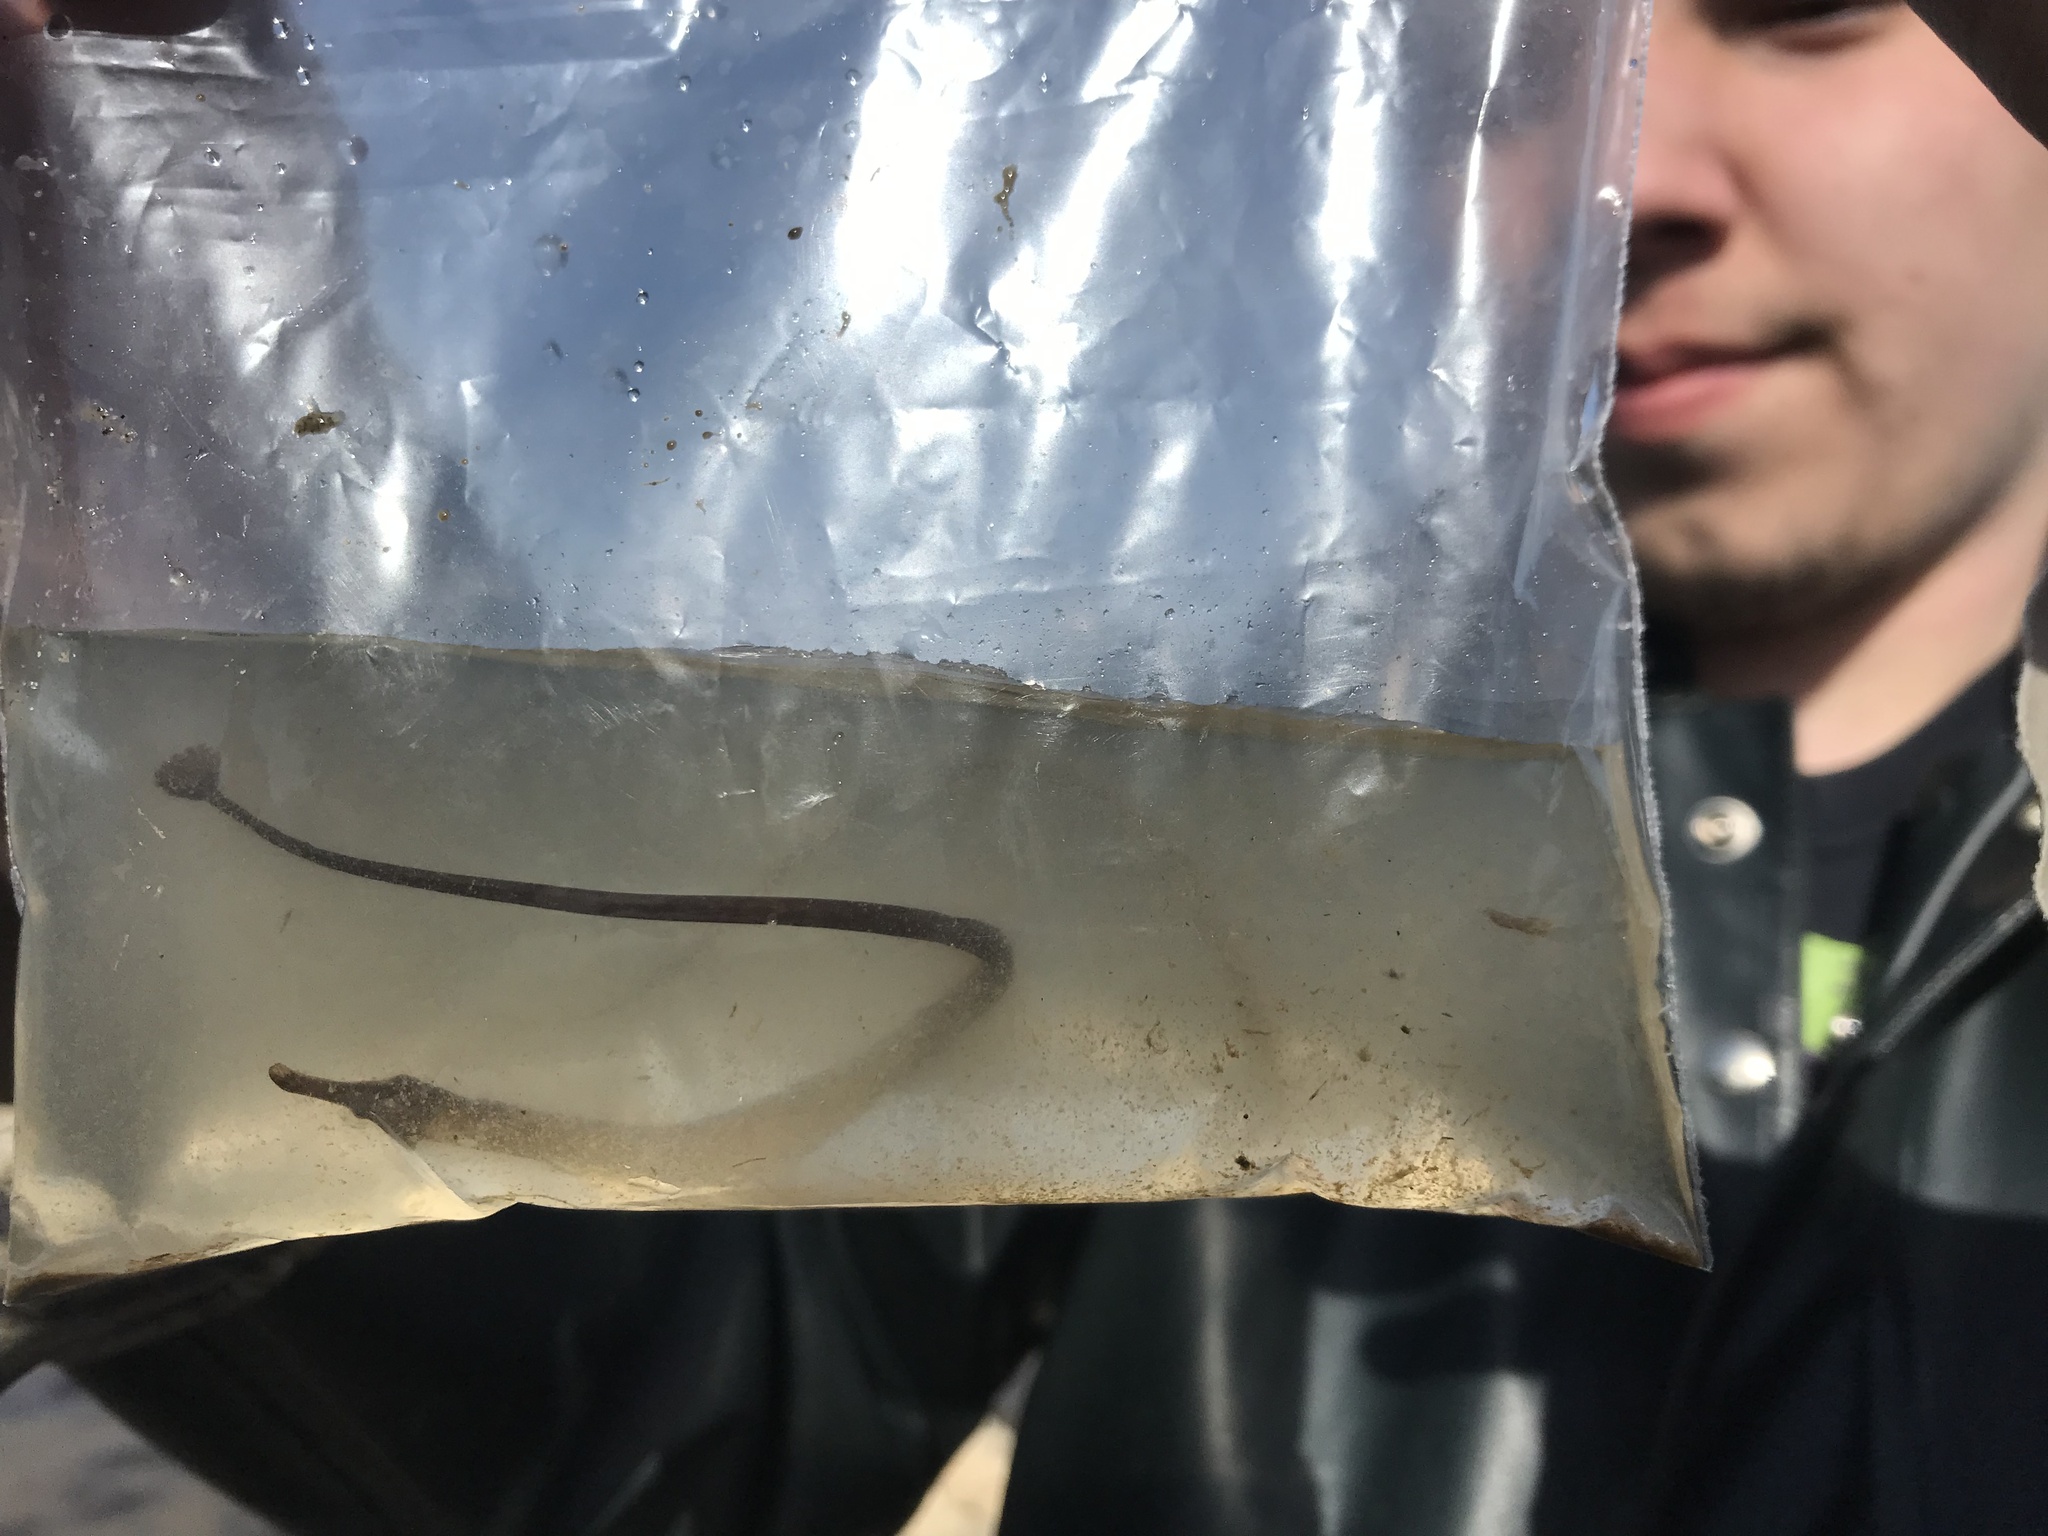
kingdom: Animalia
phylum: Chordata
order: Syngnathiformes
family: Syngnathidae
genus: Syngnathus
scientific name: Syngnathus californiensis
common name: Great pipefish
